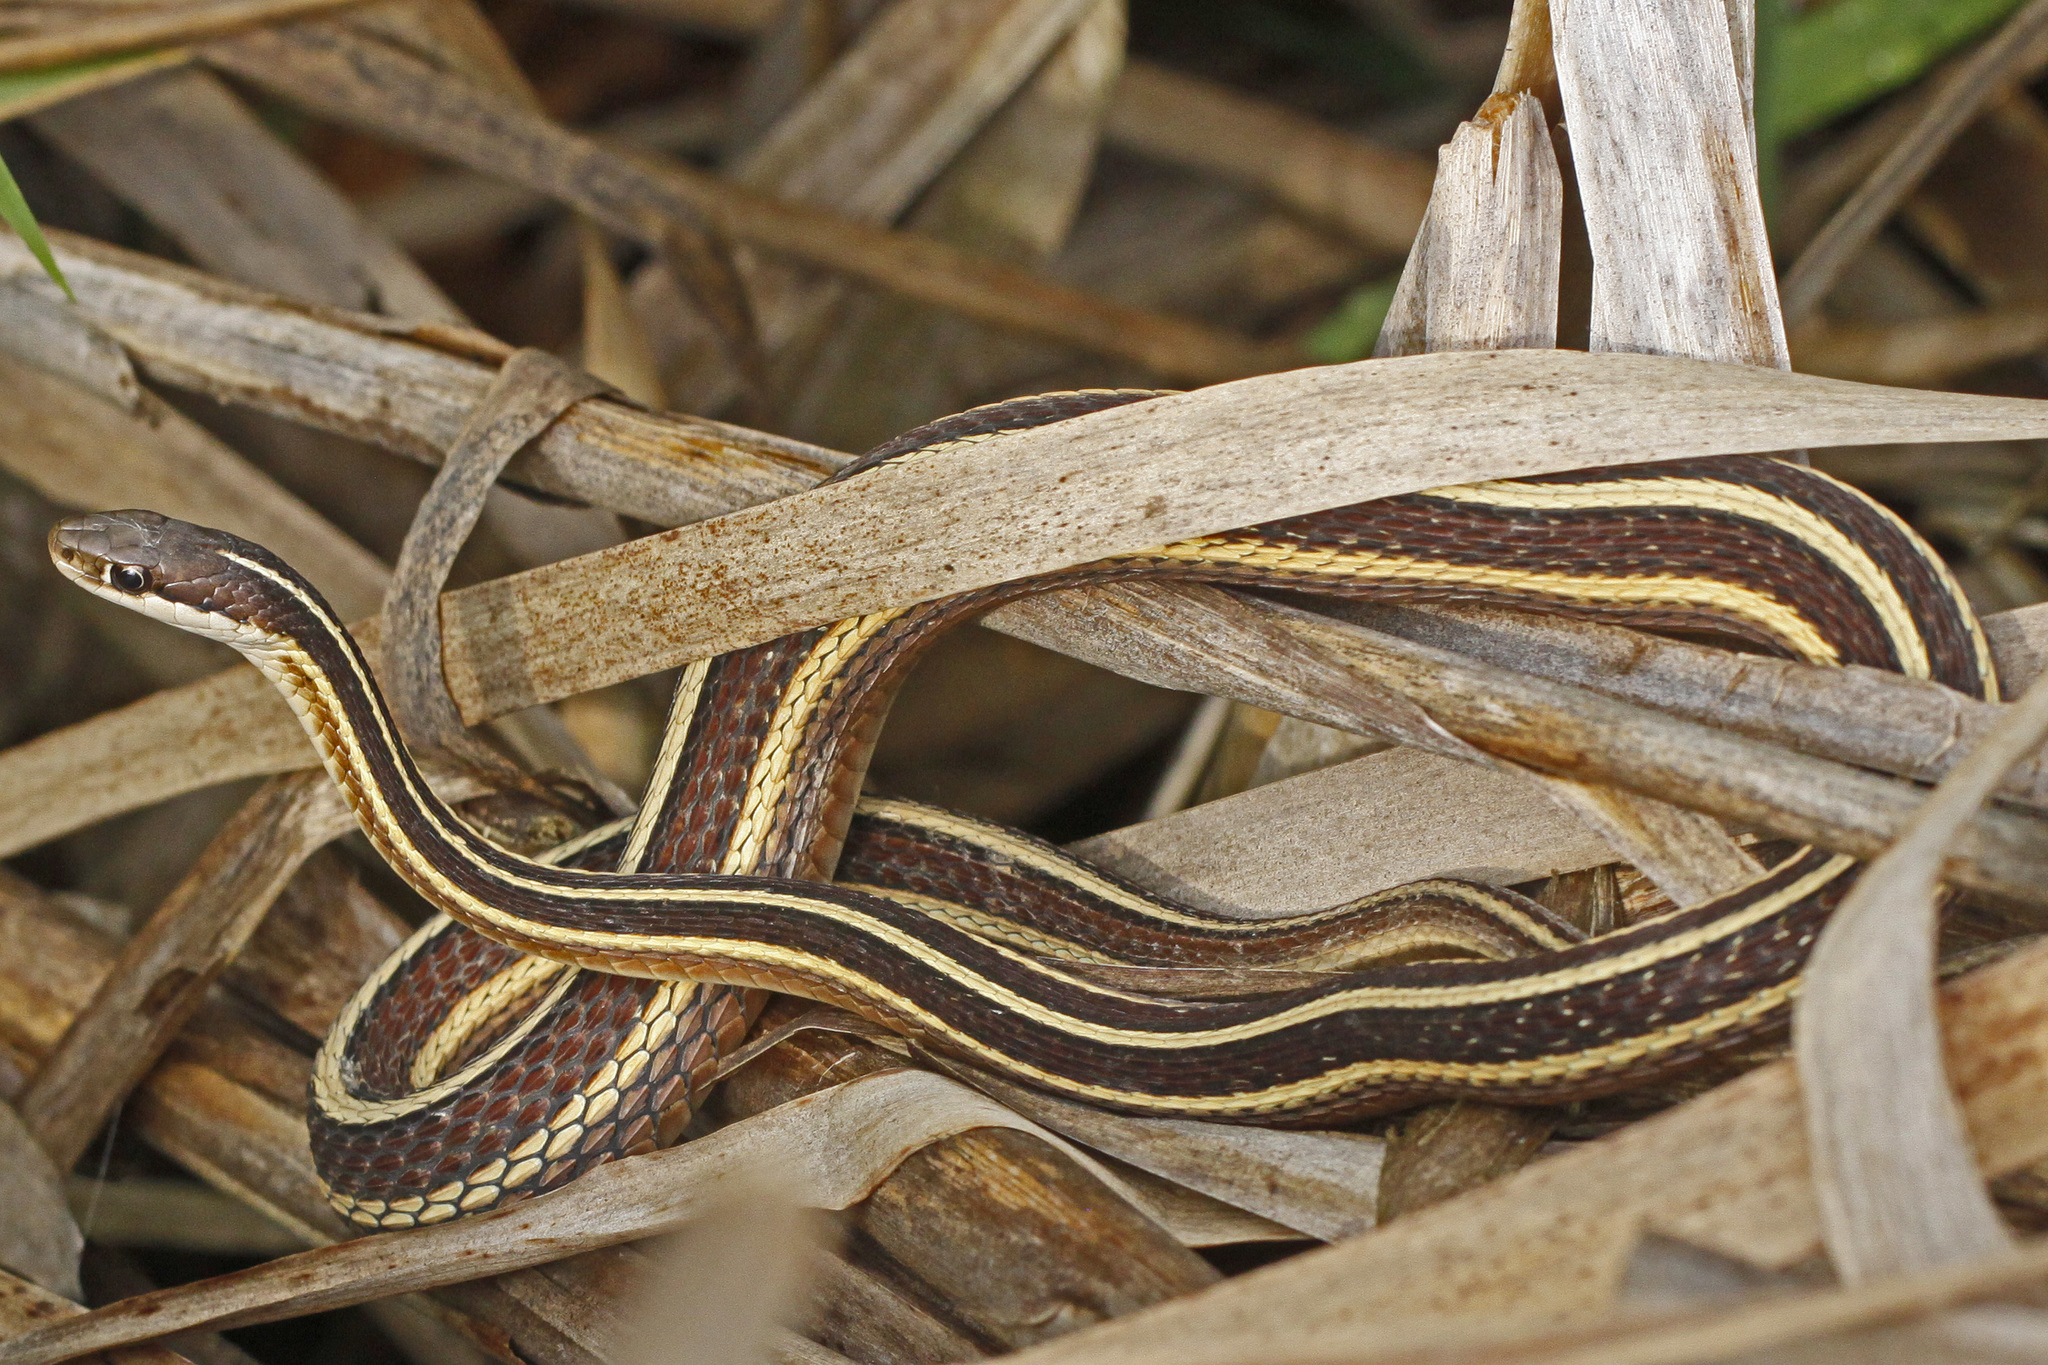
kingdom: Animalia
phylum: Chordata
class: Squamata
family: Colubridae
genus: Thamnophis
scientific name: Thamnophis saurita
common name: Eastern ribbonsnake
